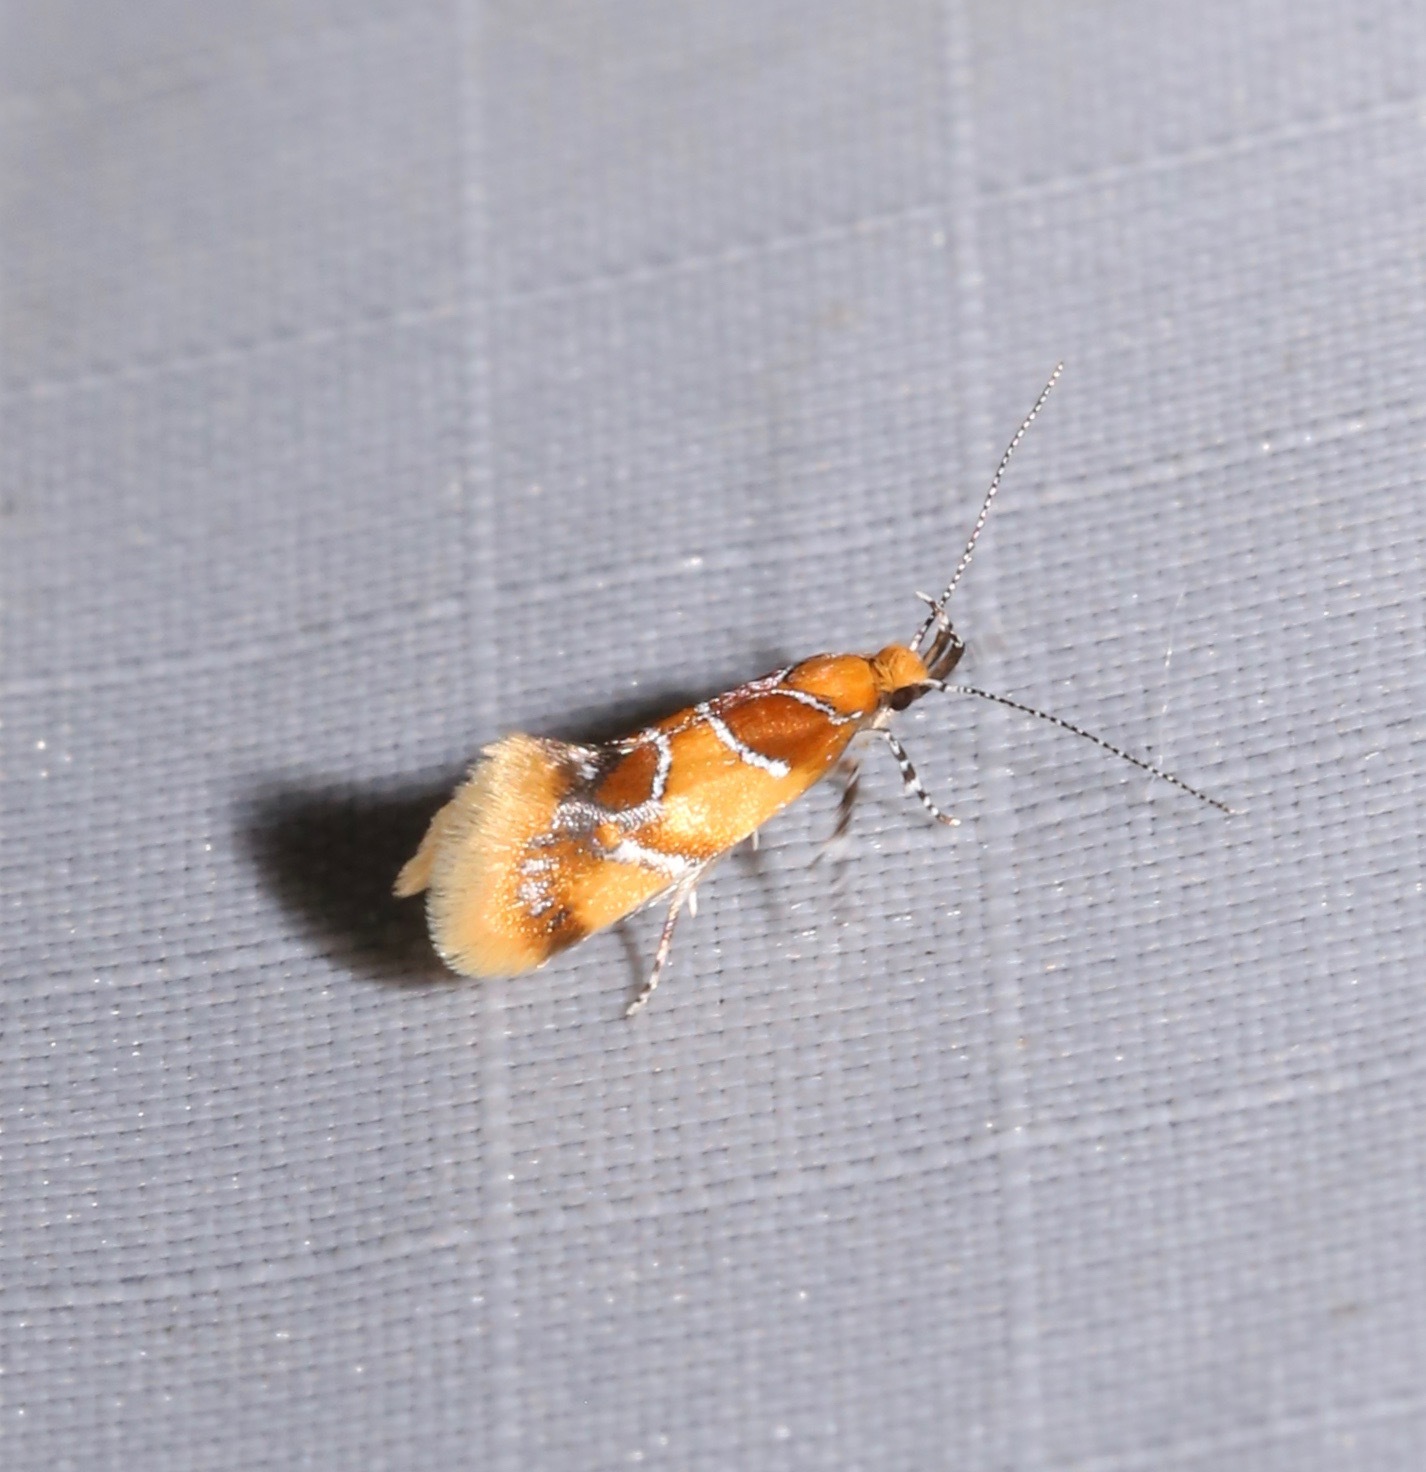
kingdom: Animalia
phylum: Arthropoda
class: Insecta
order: Lepidoptera
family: Oecophoridae
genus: Callima
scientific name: Callima argenticinctella
